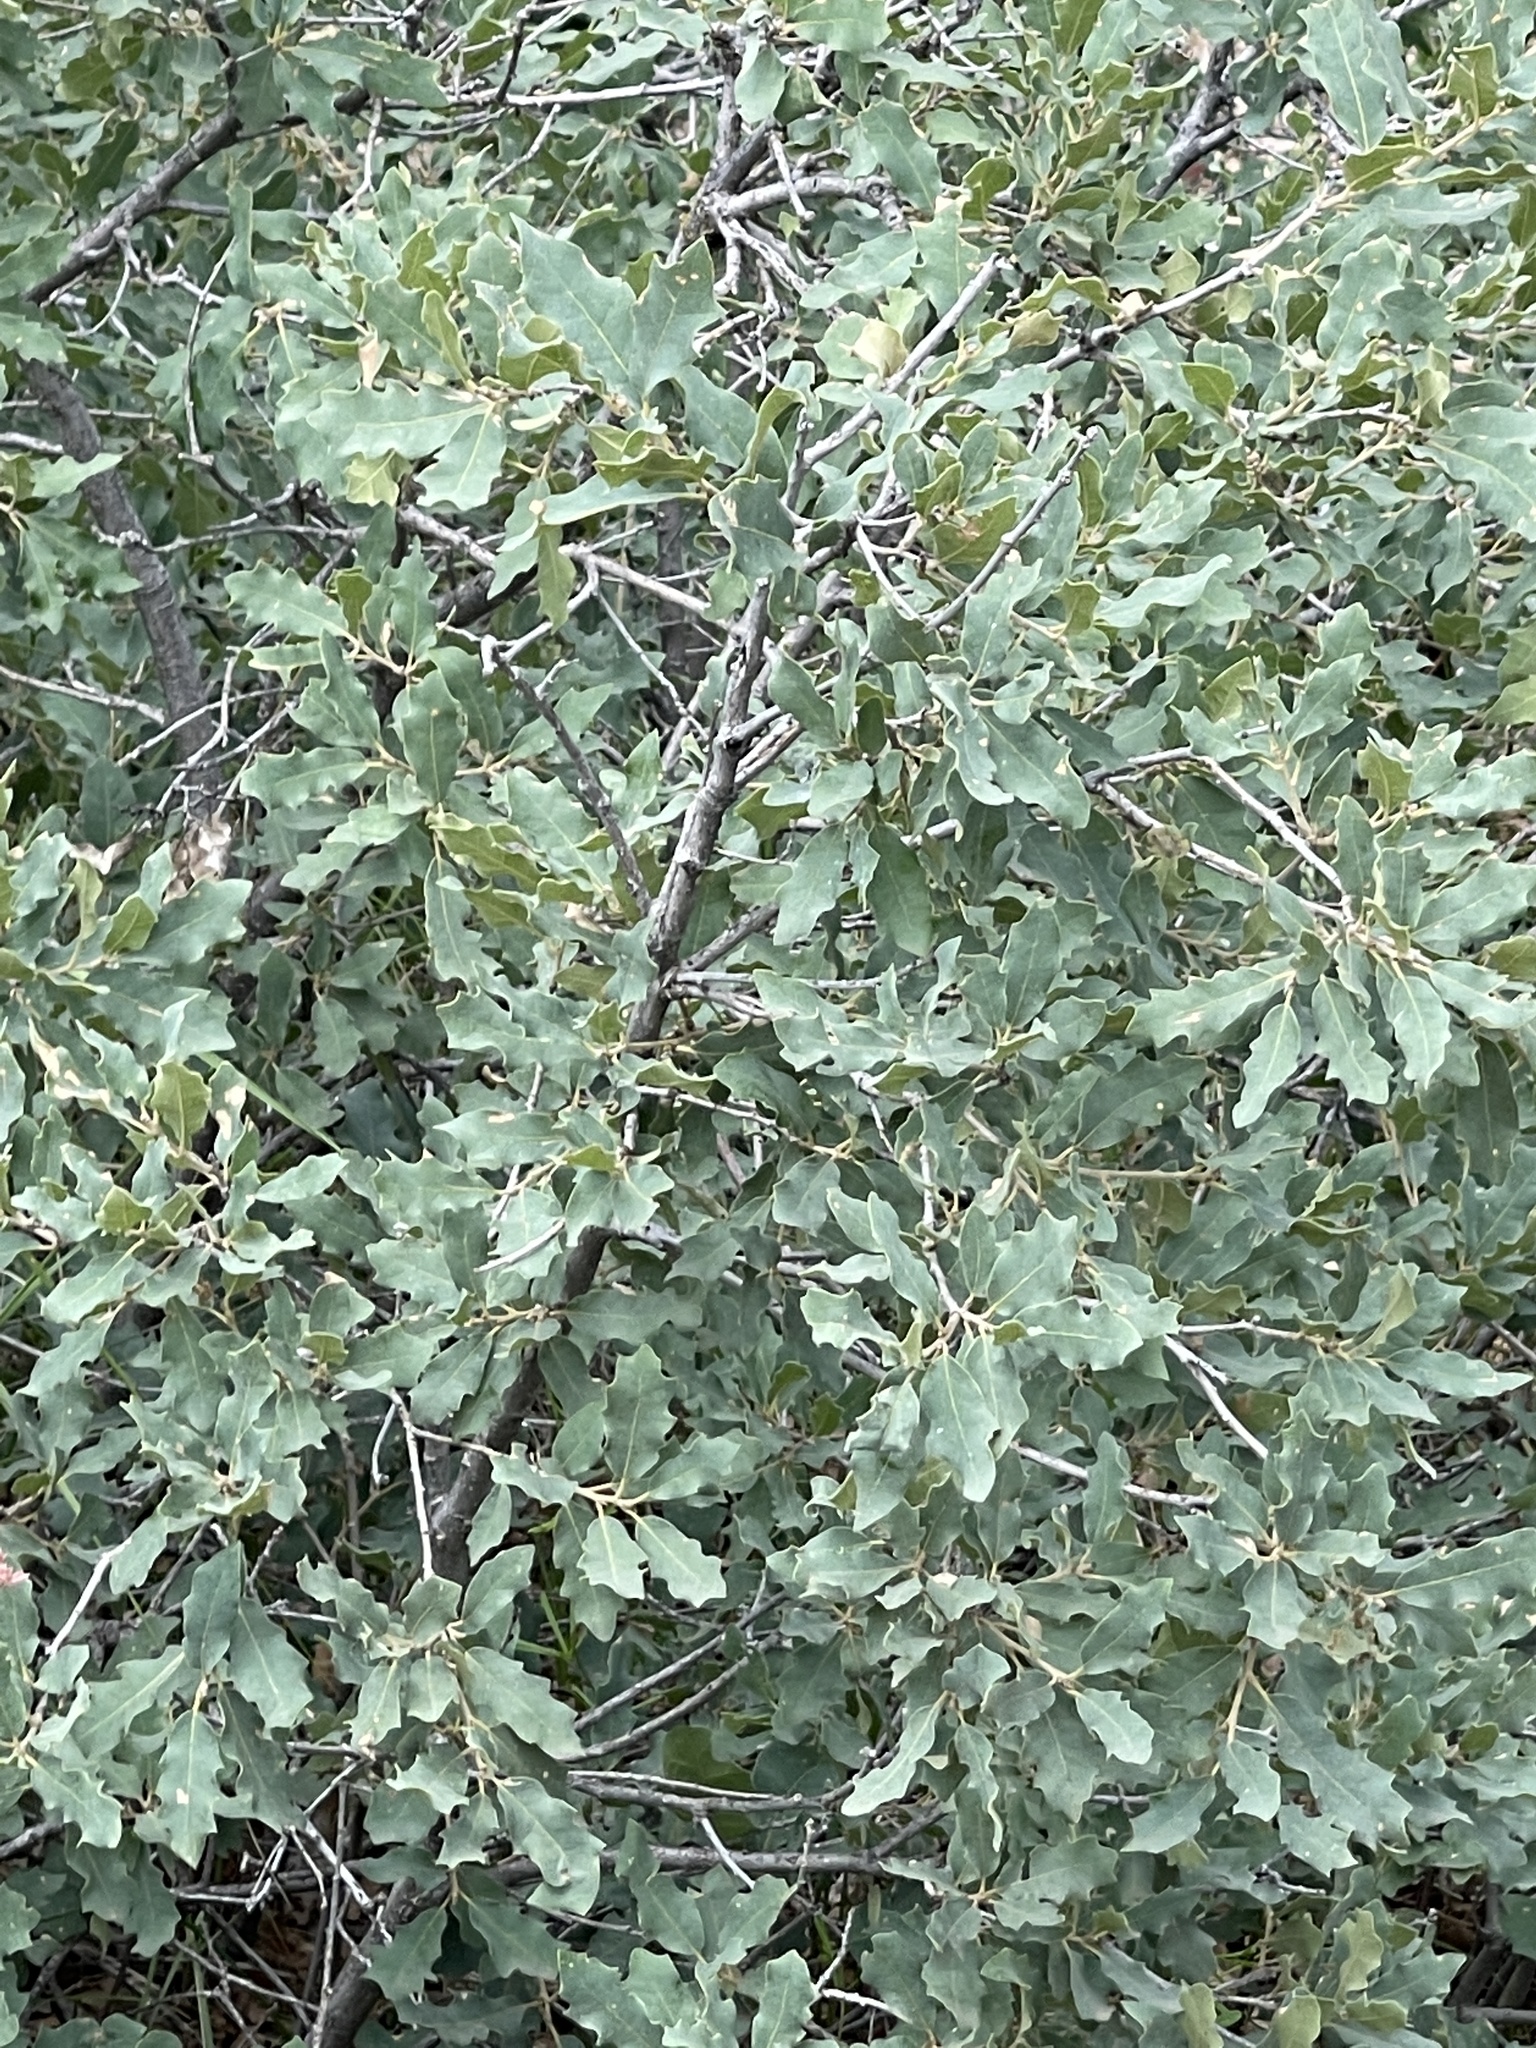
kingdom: Plantae
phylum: Tracheophyta
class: Magnoliopsida
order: Fagales
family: Fagaceae
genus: Quercus
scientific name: Quercus undulata
